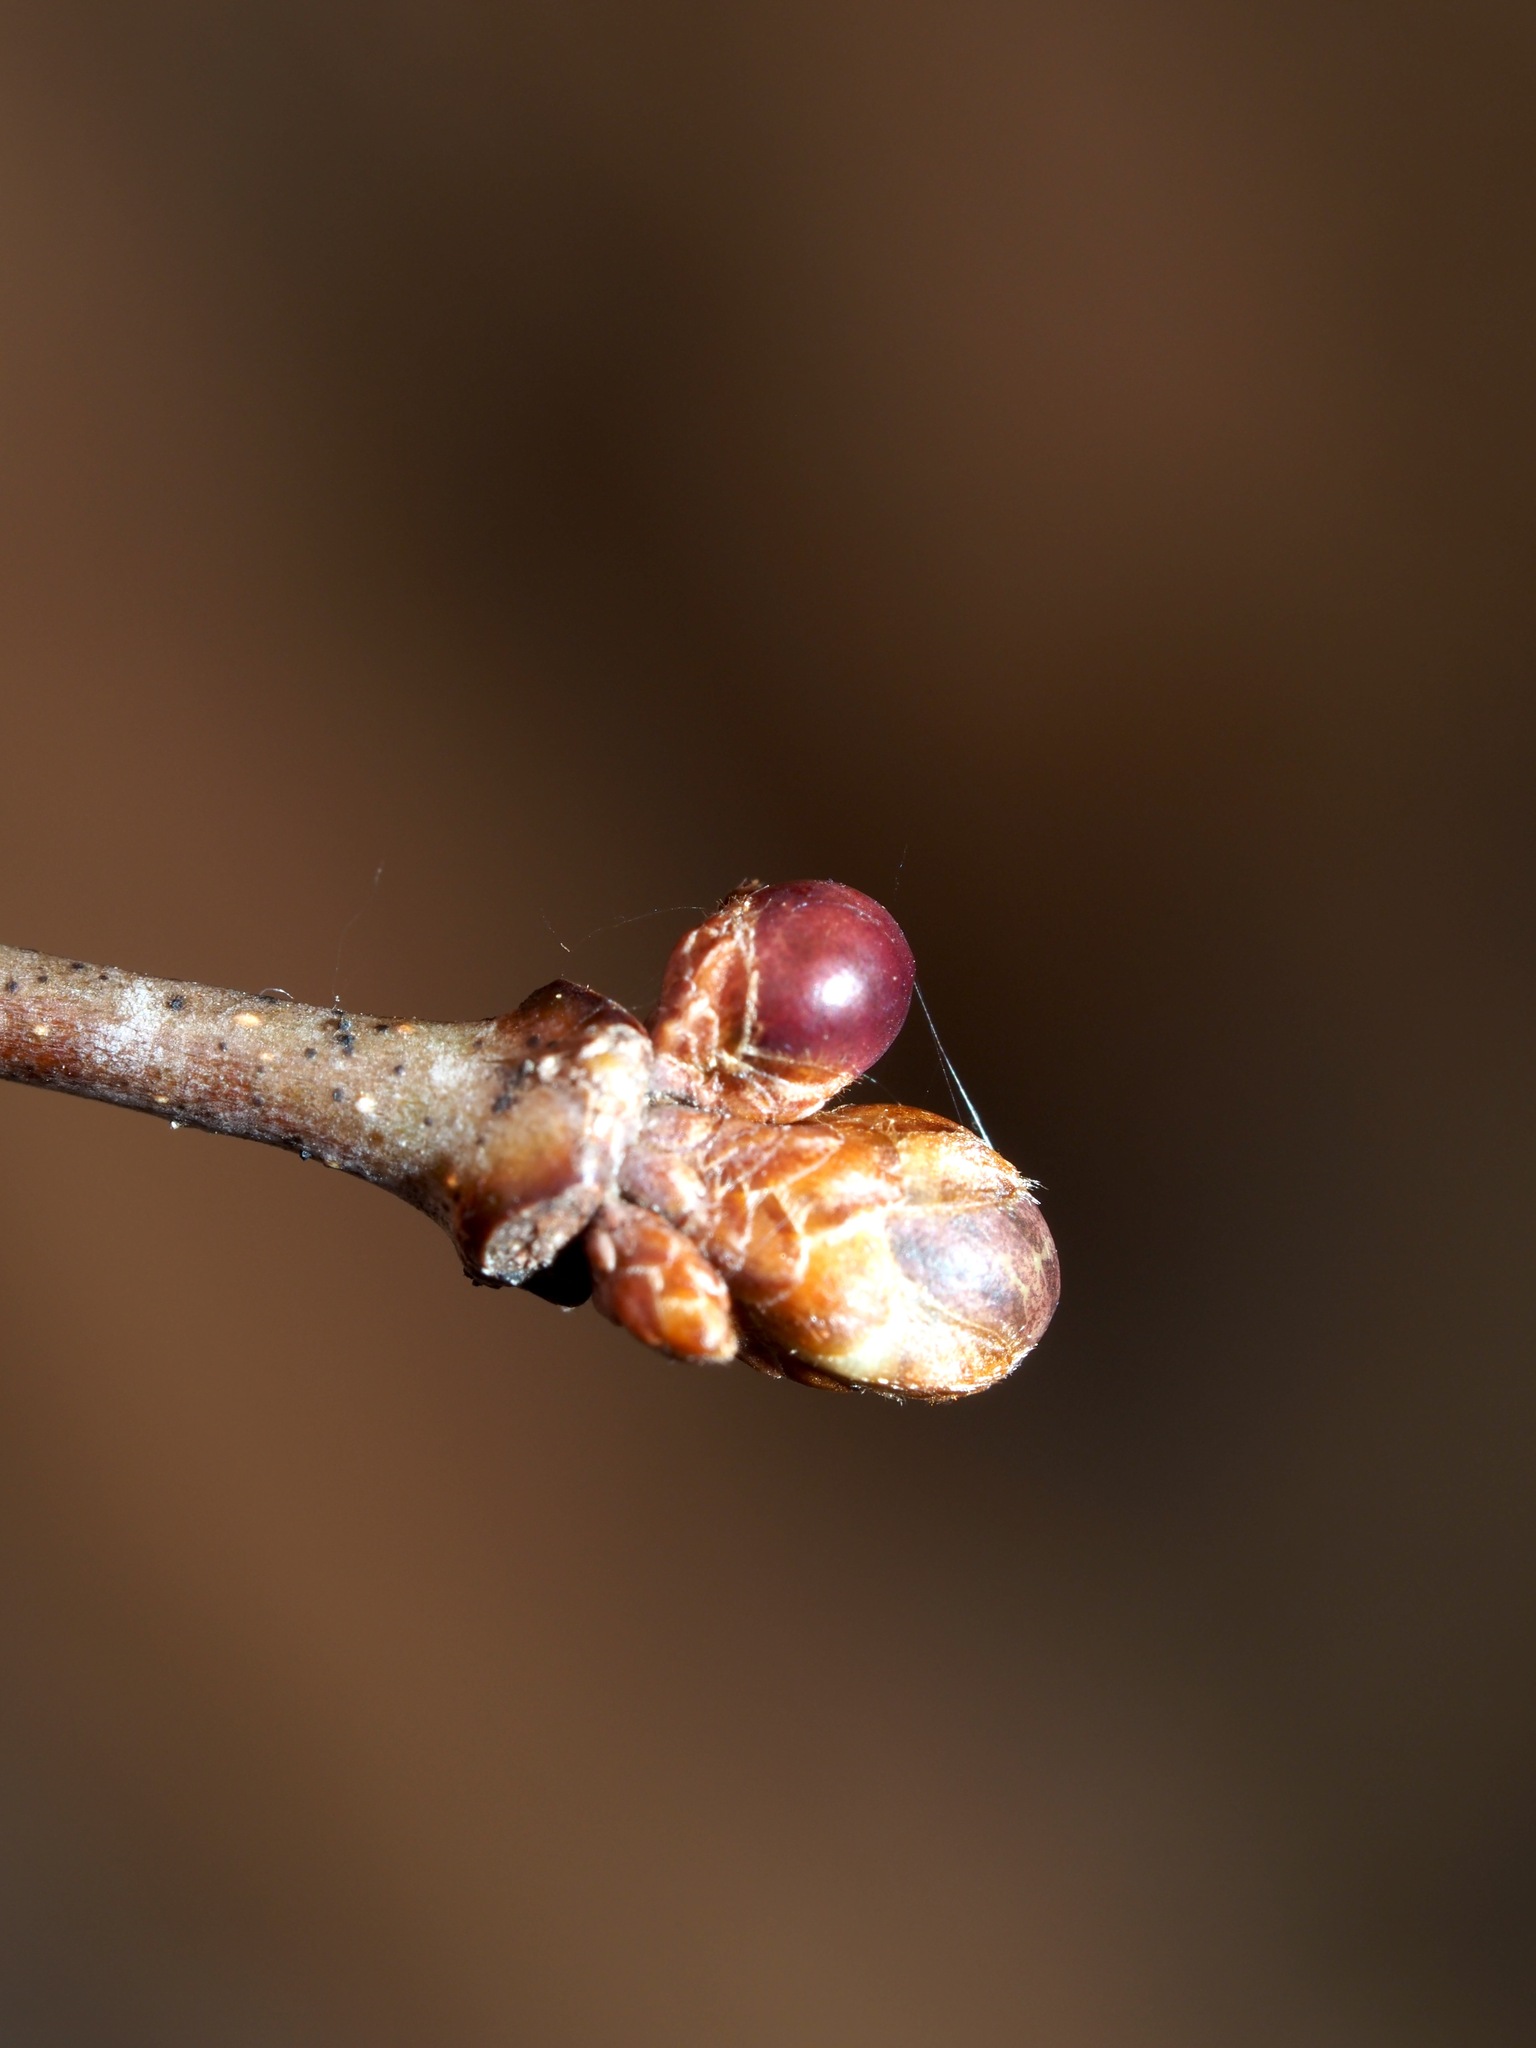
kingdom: Animalia
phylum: Arthropoda
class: Insecta
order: Hymenoptera
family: Cynipidae
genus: Neuroterus
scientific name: Neuroterus
